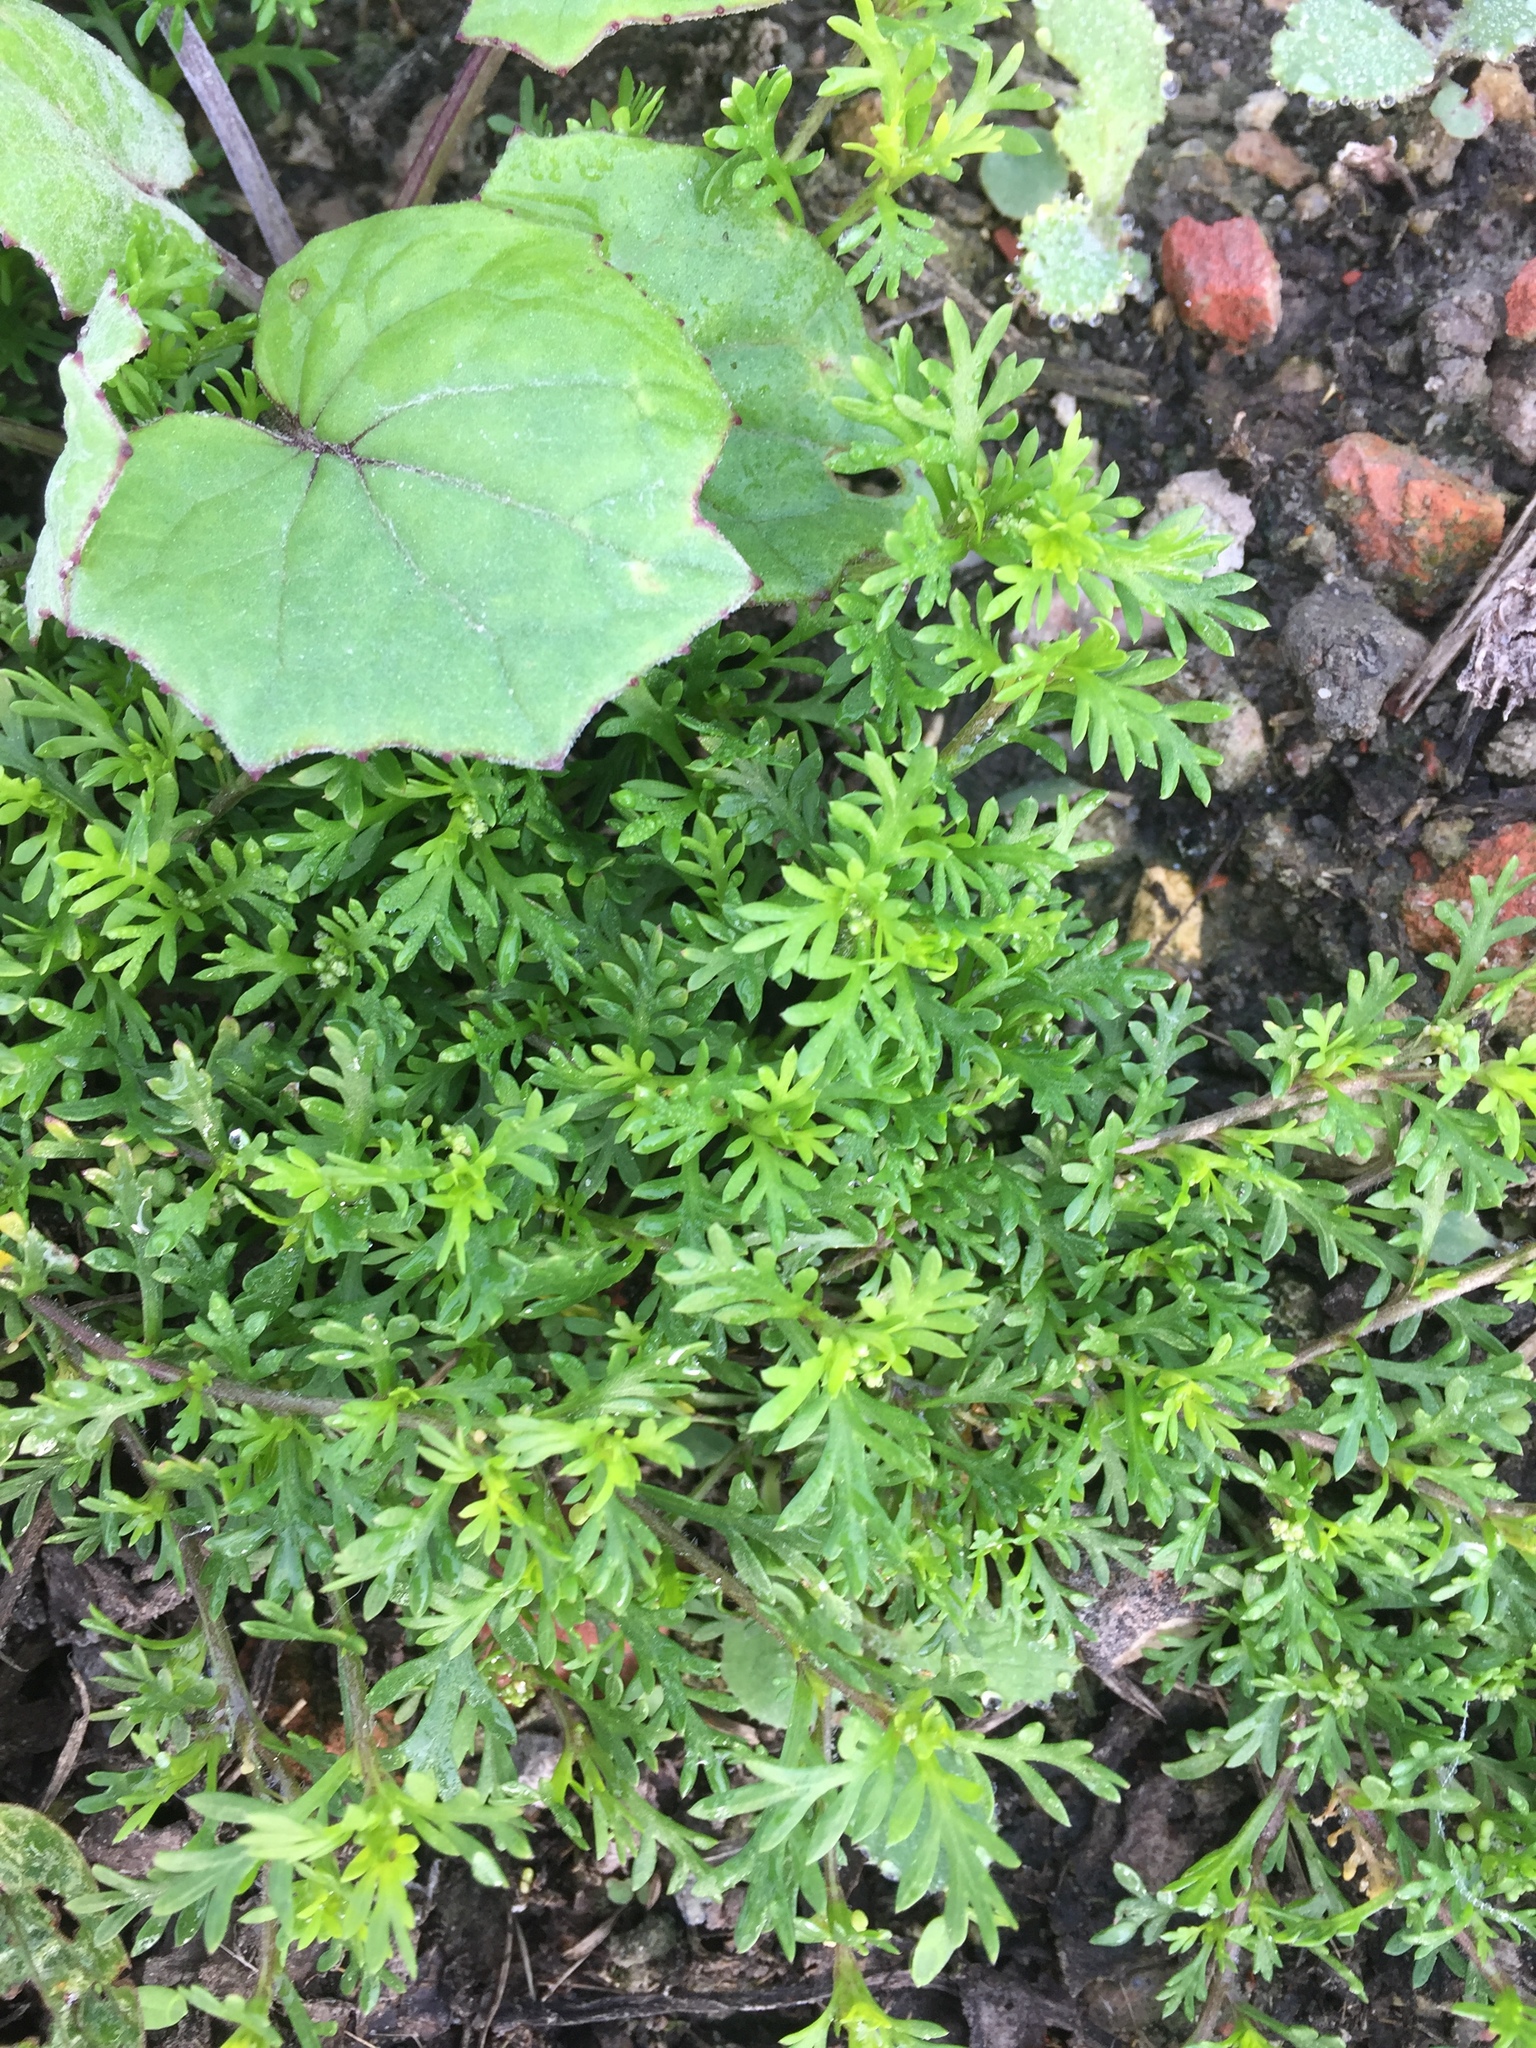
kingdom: Plantae
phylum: Tracheophyta
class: Magnoliopsida
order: Brassicales
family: Brassicaceae
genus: Lepidium
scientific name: Lepidium didymum
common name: Lesser swinecress
